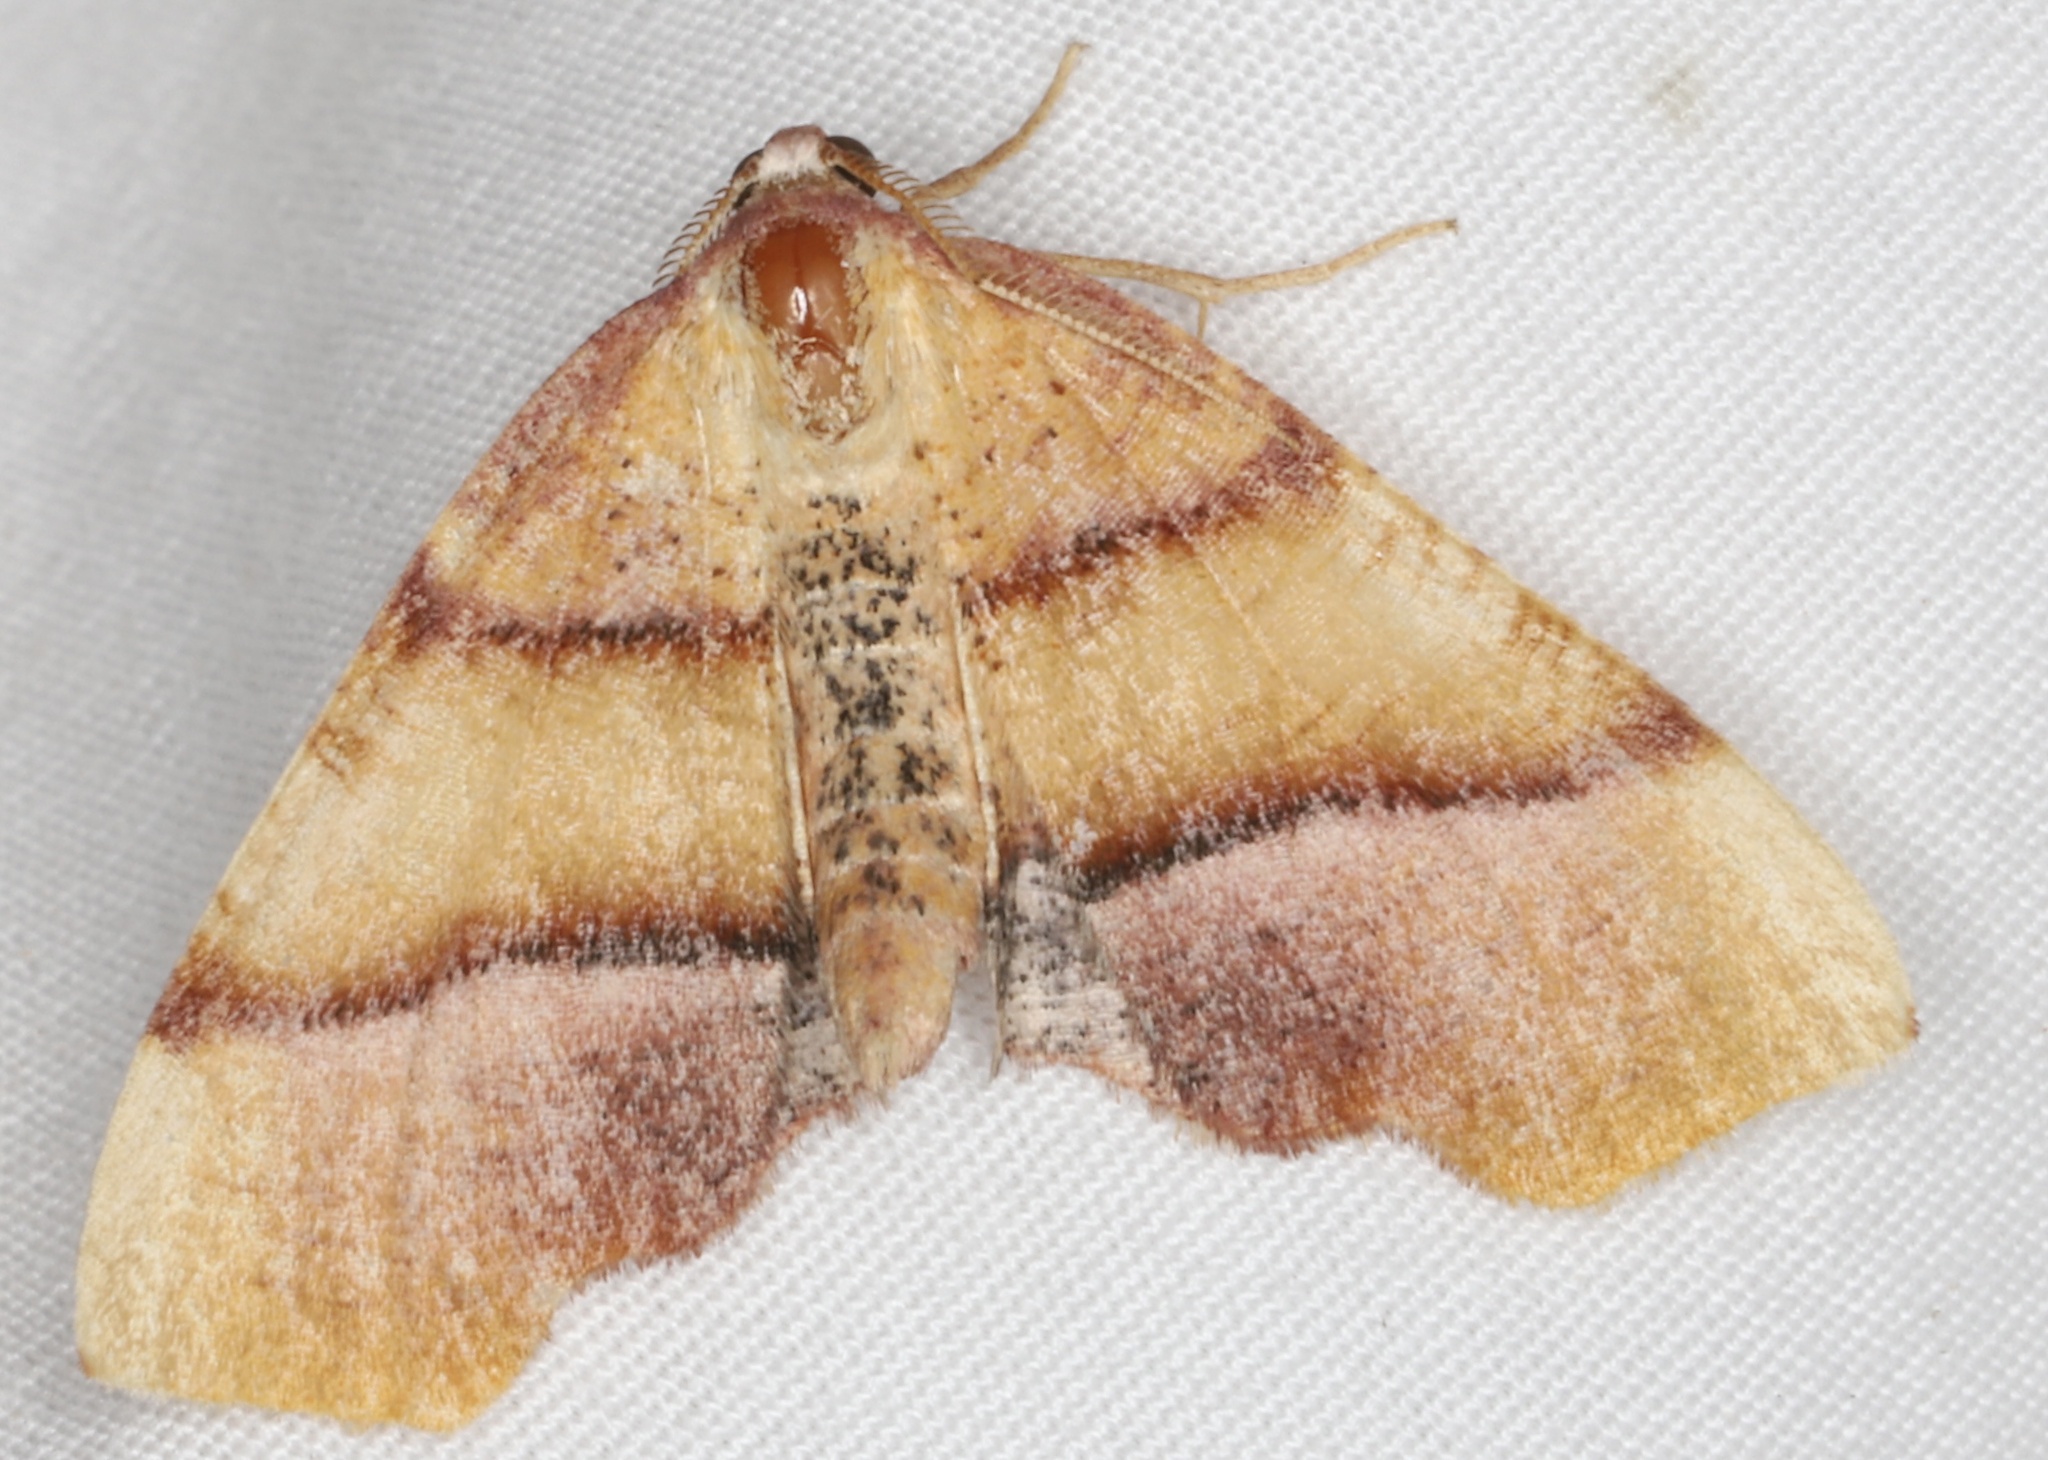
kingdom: Animalia
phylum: Arthropoda
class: Insecta
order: Lepidoptera
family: Geometridae
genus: Plagodis
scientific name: Plagodis phlogosaria
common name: Straight-lined plagodis
